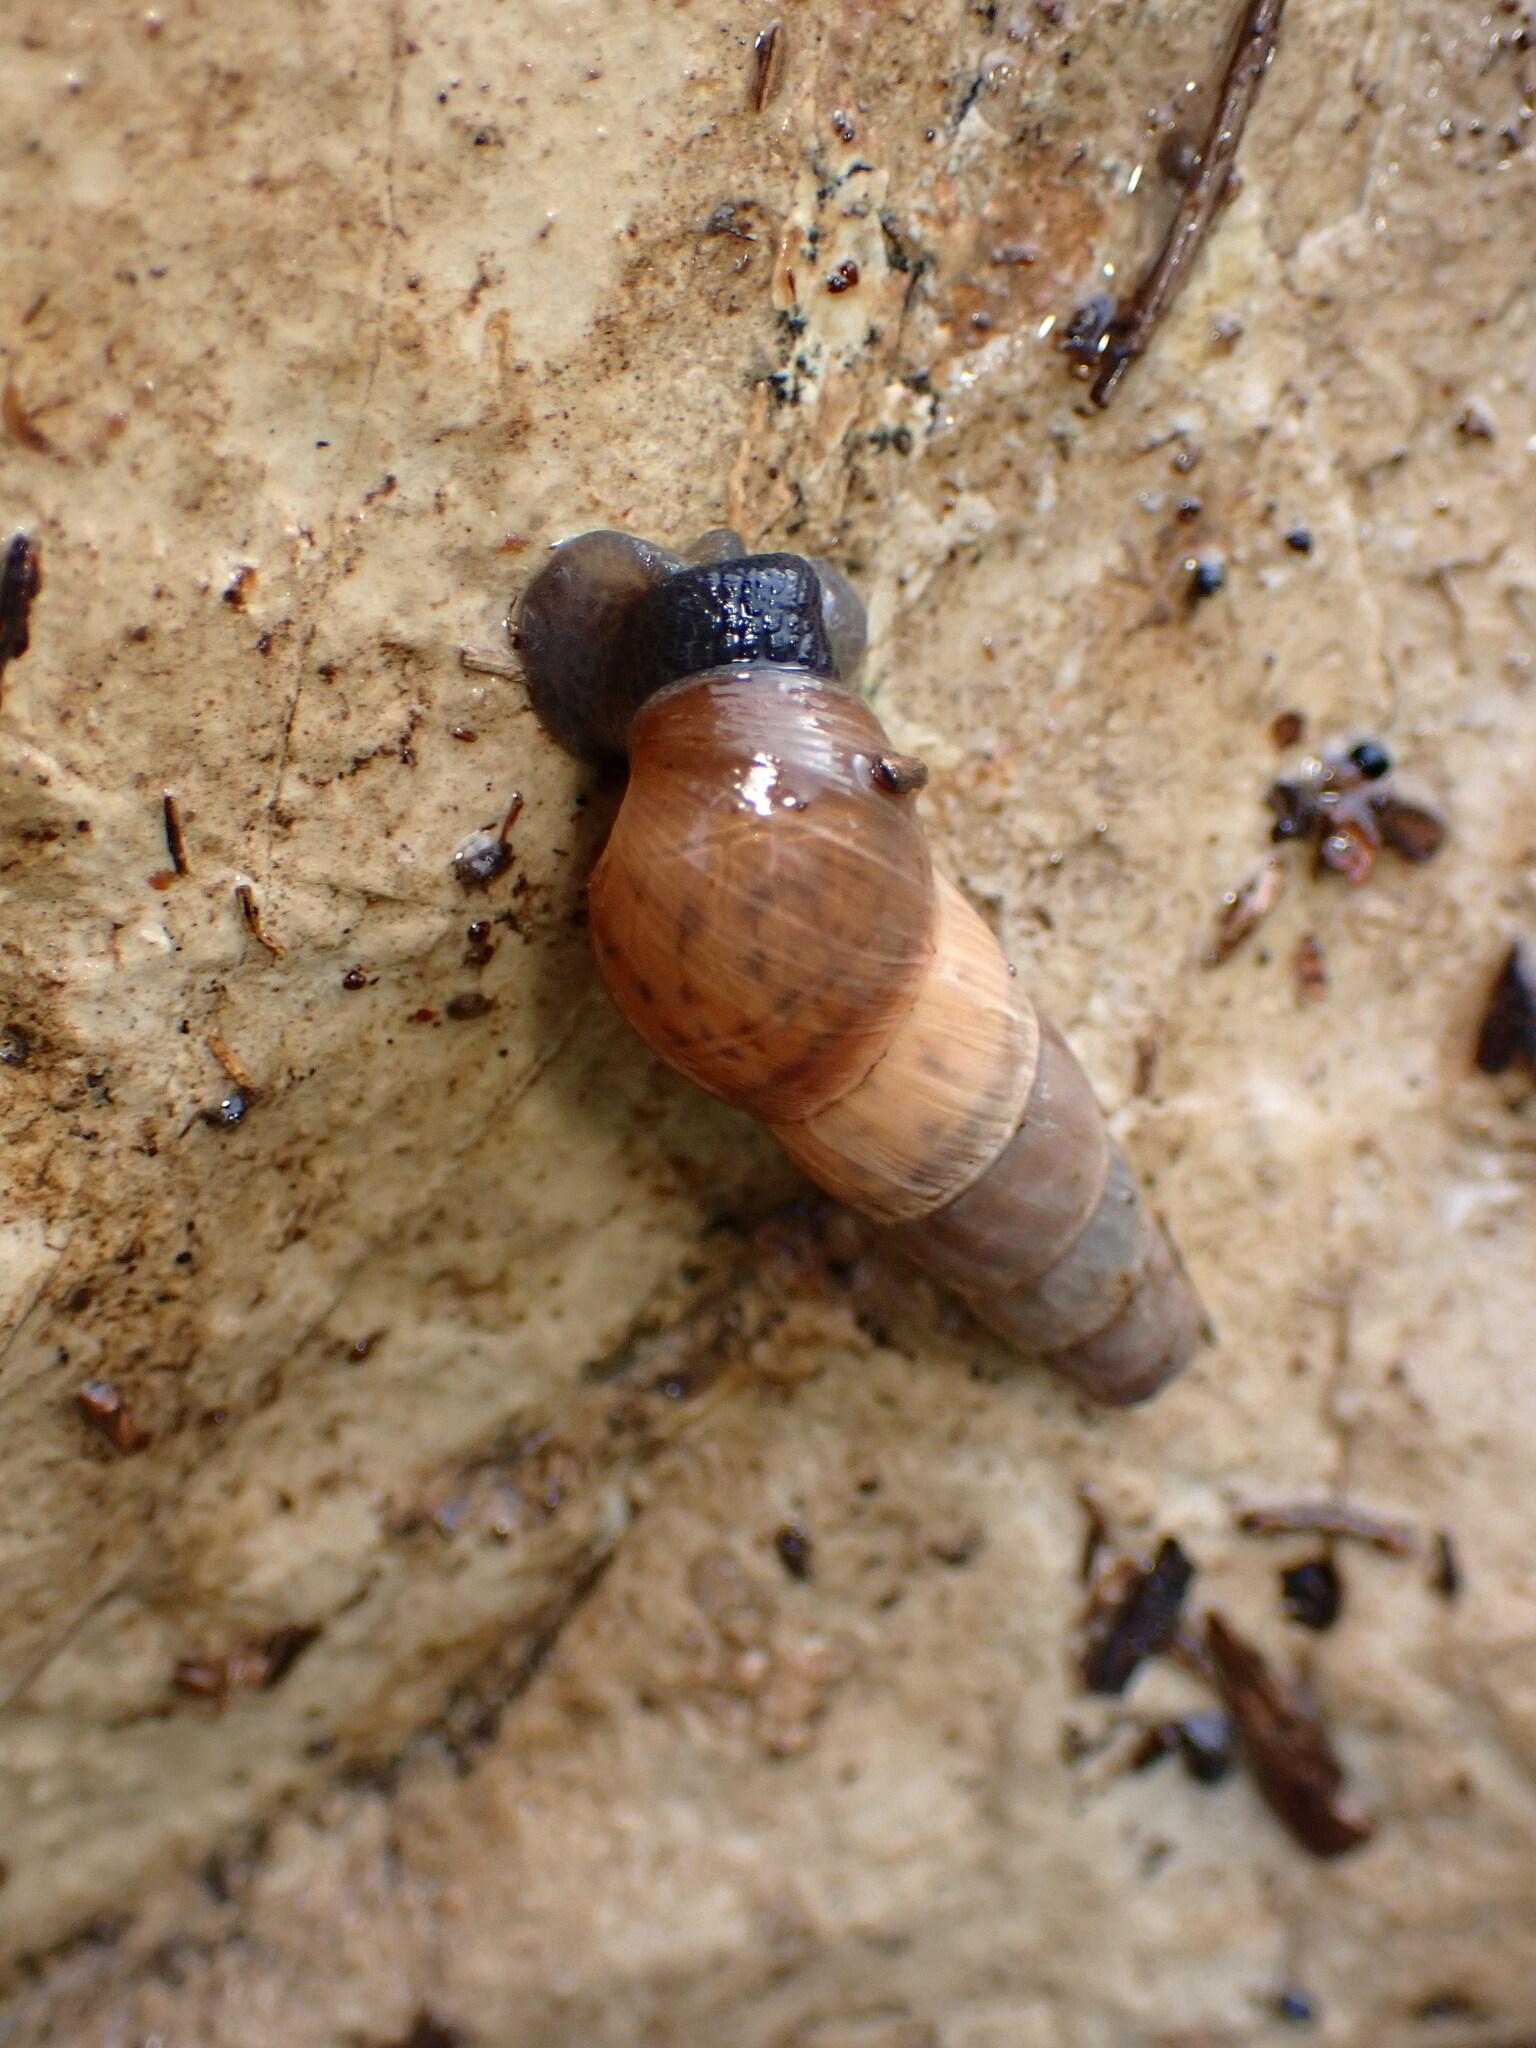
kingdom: Animalia
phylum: Mollusca
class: Gastropoda
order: Stylommatophora
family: Achatinidae
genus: Rumina
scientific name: Rumina decollata
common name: Decollate snail
